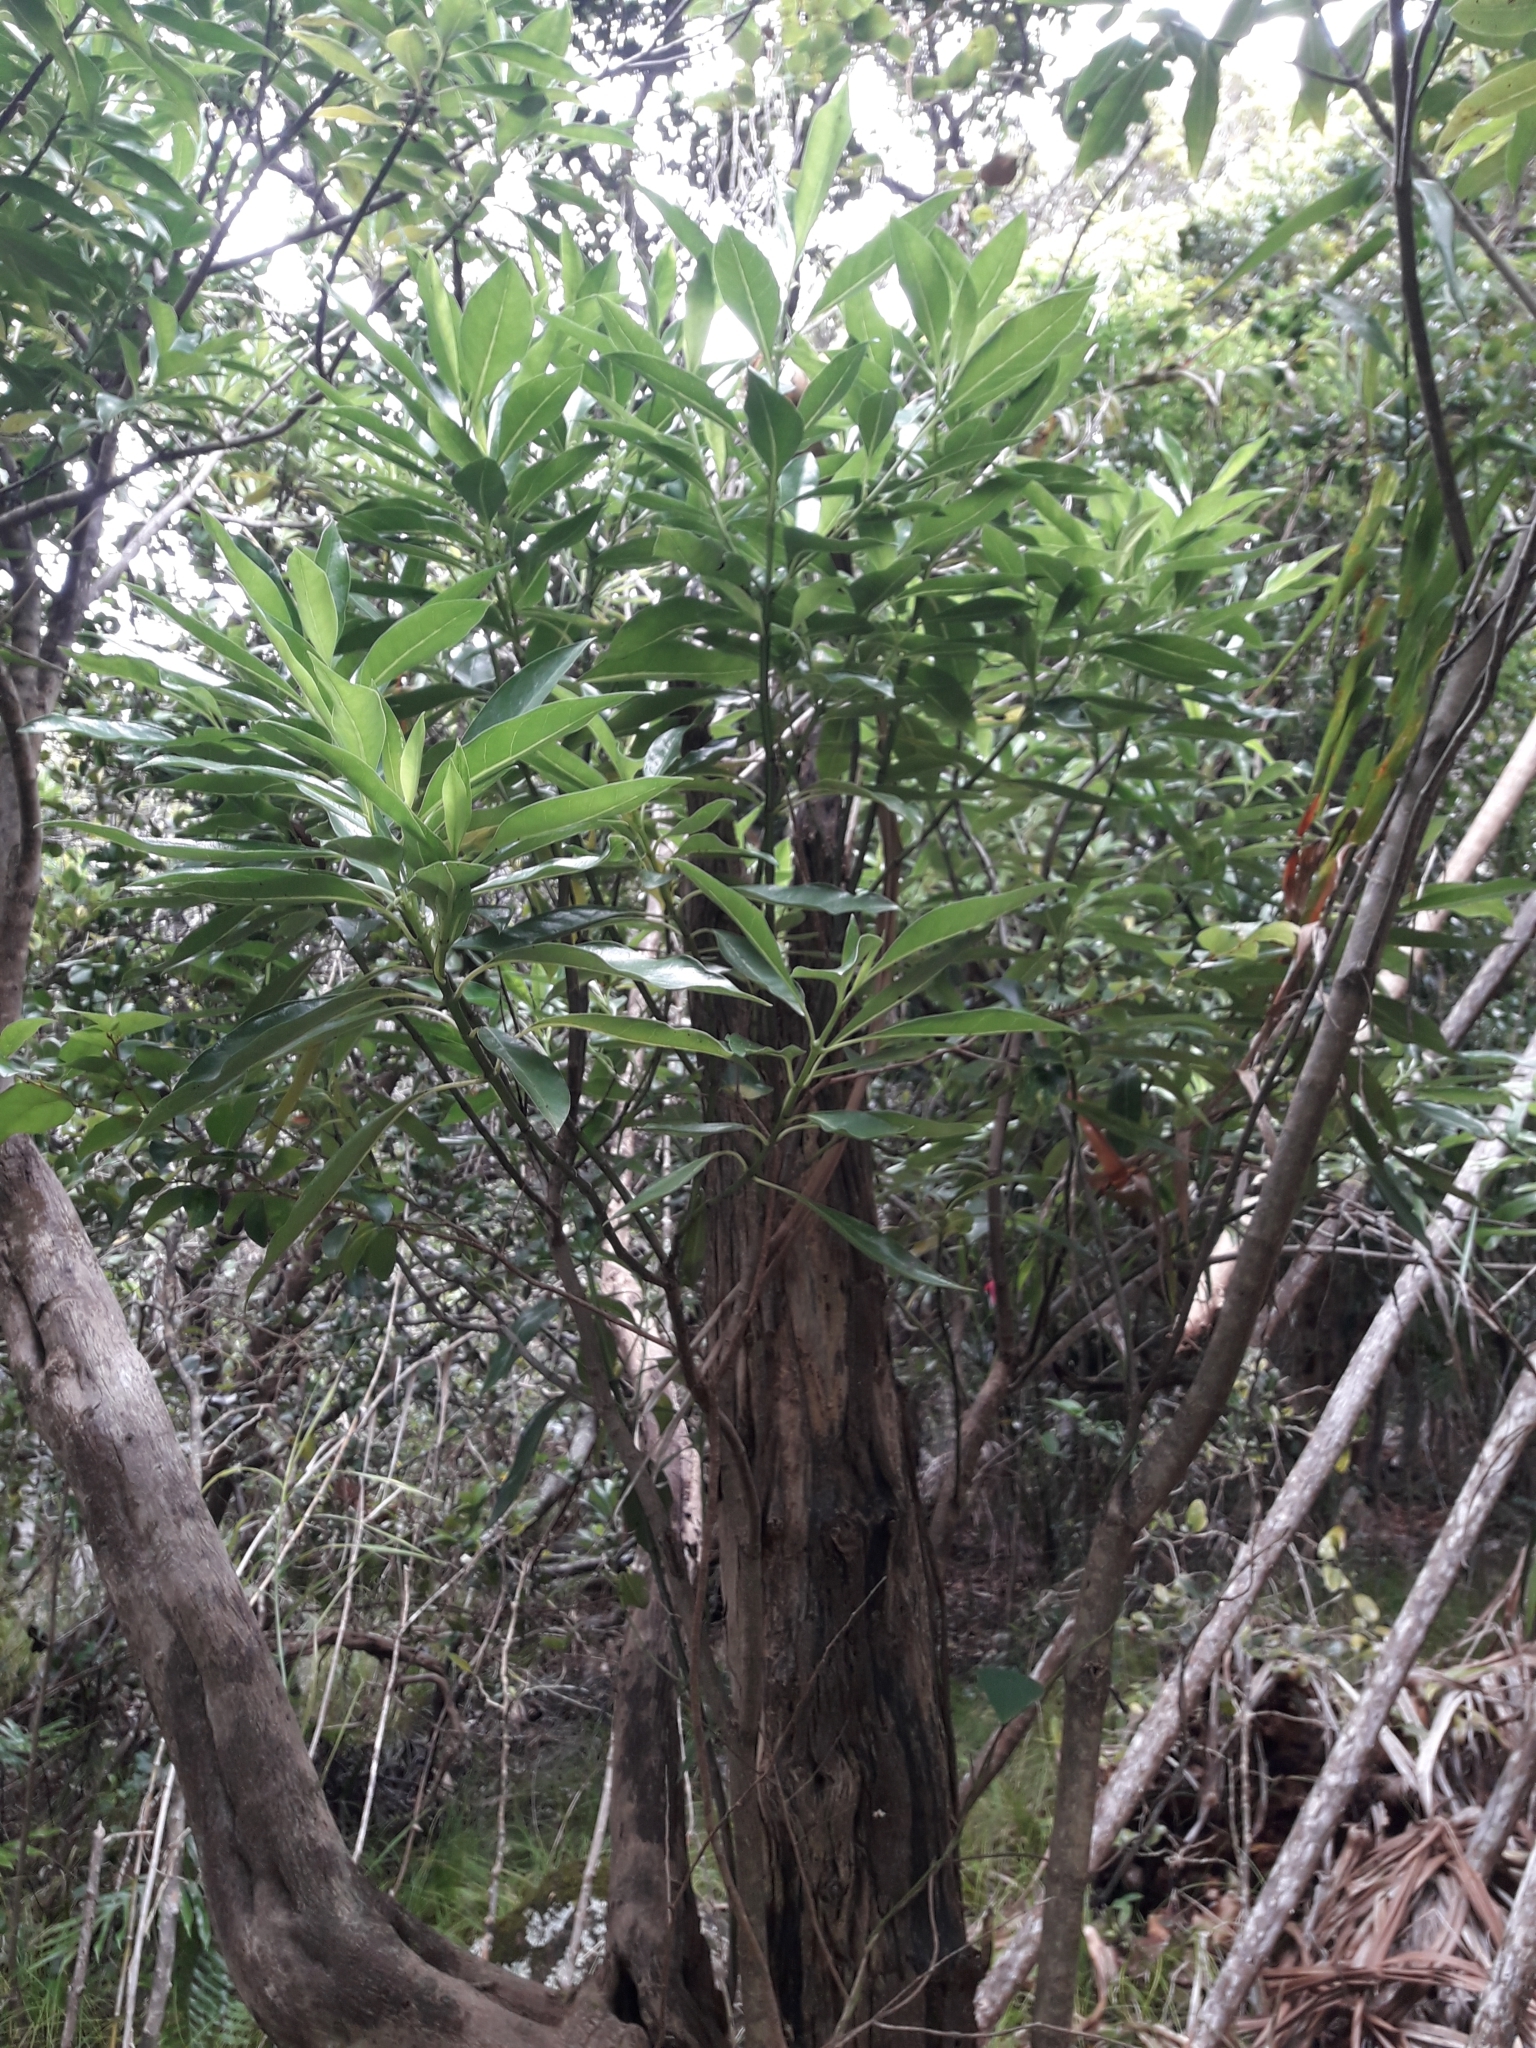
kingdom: Plantae
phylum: Tracheophyta
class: Magnoliopsida
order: Gentianales
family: Loganiaceae
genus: Geniostoma
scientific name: Geniostoma petiolosum
